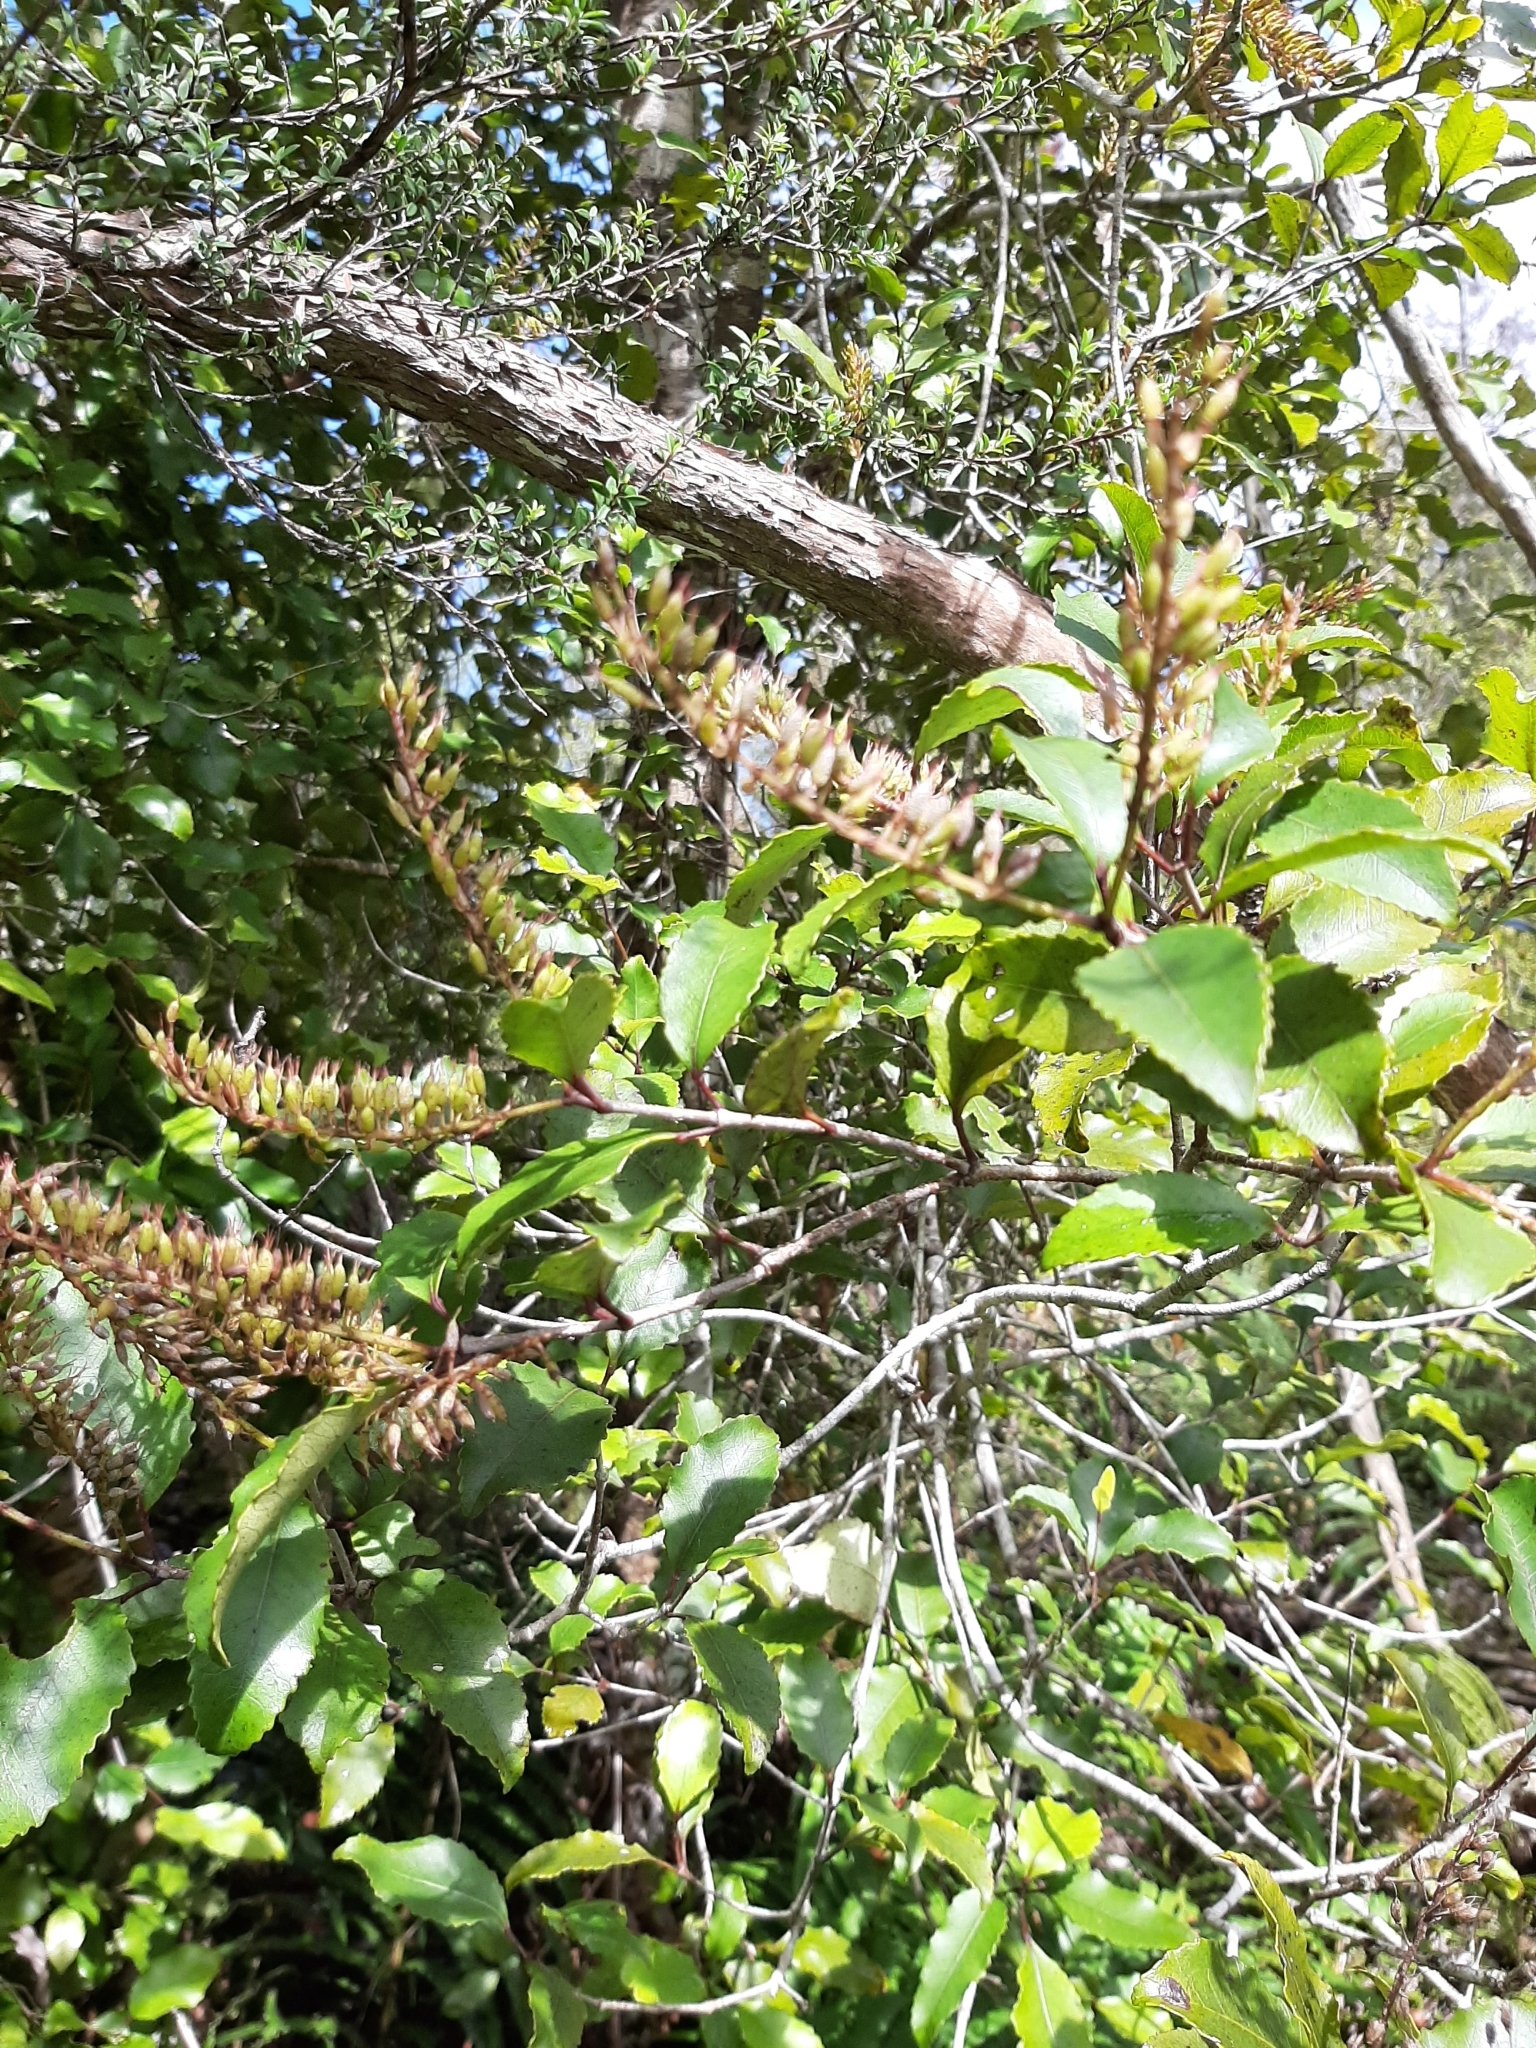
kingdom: Plantae
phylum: Tracheophyta
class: Magnoliopsida
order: Oxalidales
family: Cunoniaceae
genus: Pterophylla
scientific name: Pterophylla racemosa
